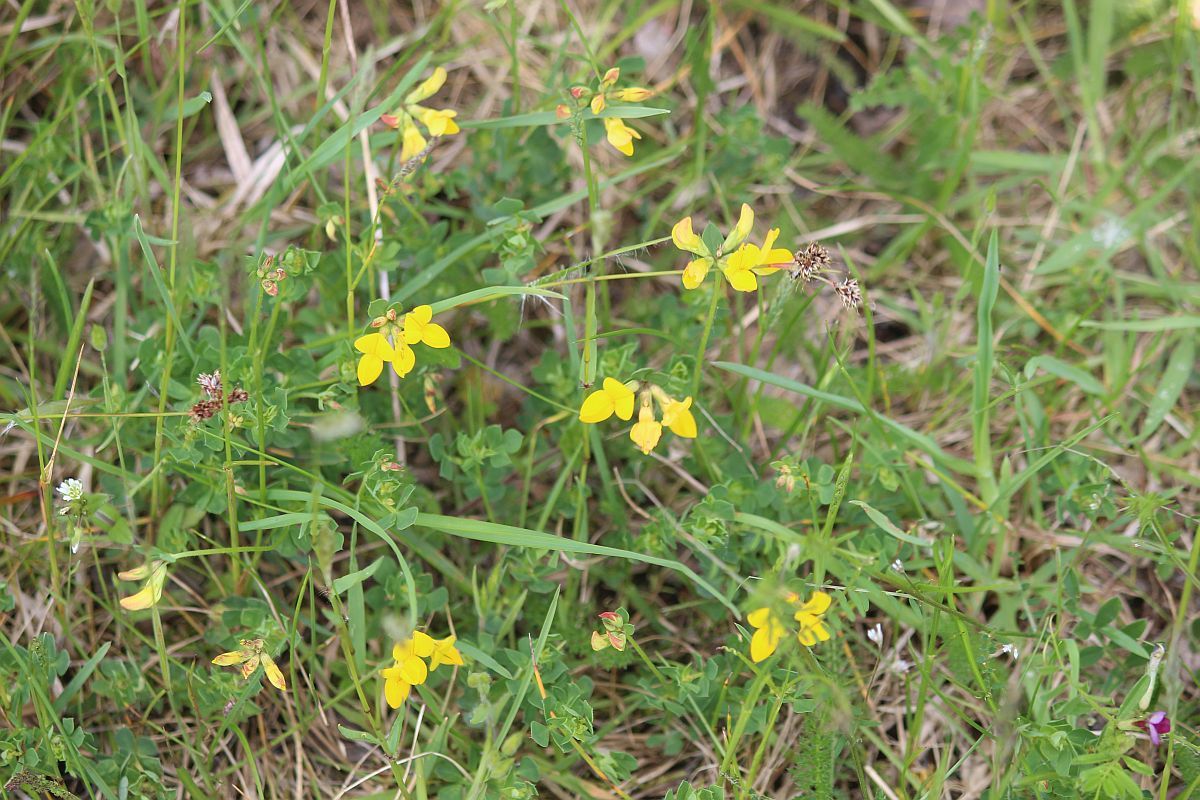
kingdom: Plantae
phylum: Tracheophyta
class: Magnoliopsida
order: Fabales
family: Fabaceae
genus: Lotus
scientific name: Lotus corniculatus
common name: Common bird's-foot-trefoil
